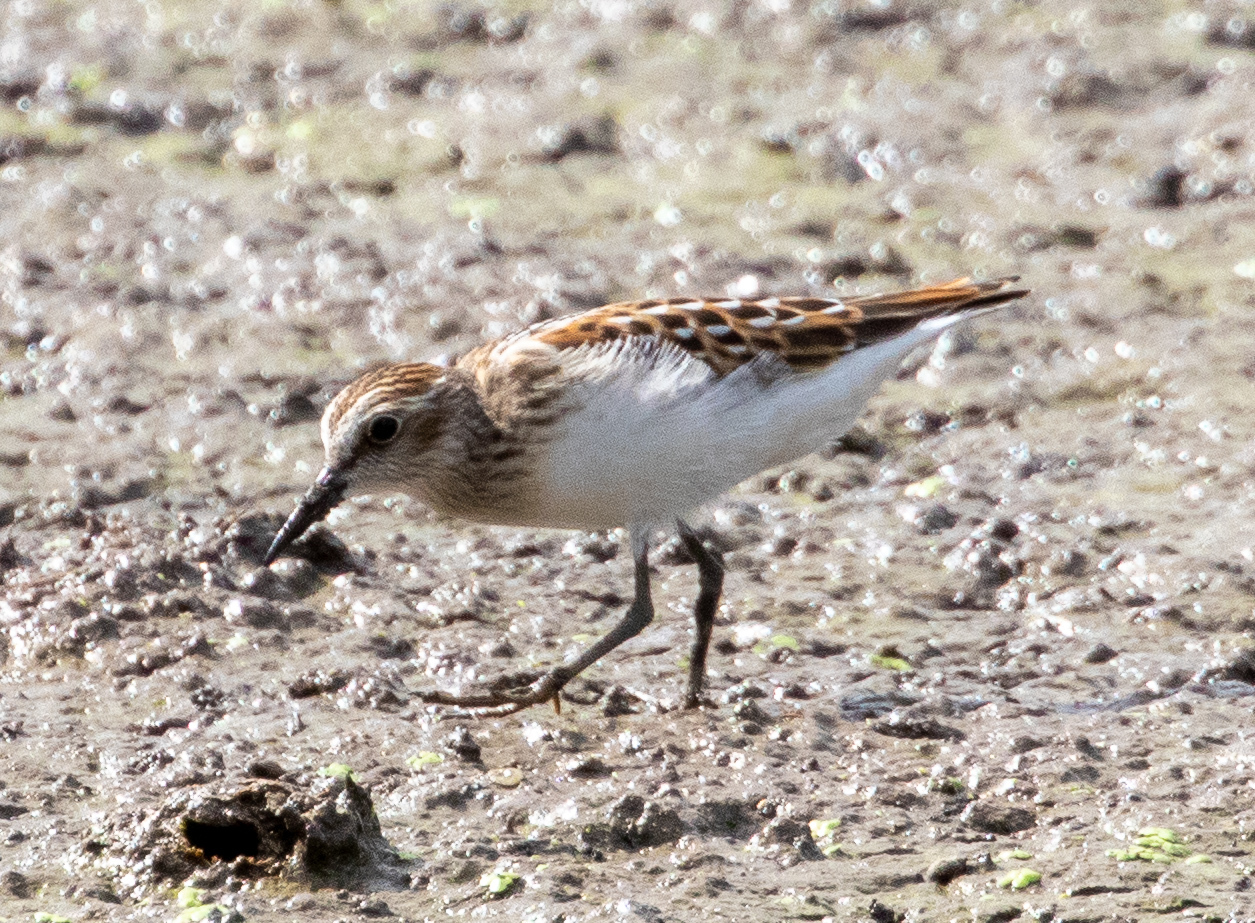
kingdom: Animalia
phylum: Chordata
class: Aves
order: Charadriiformes
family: Scolopacidae
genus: Calidris
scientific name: Calidris minutilla
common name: Least sandpiper
